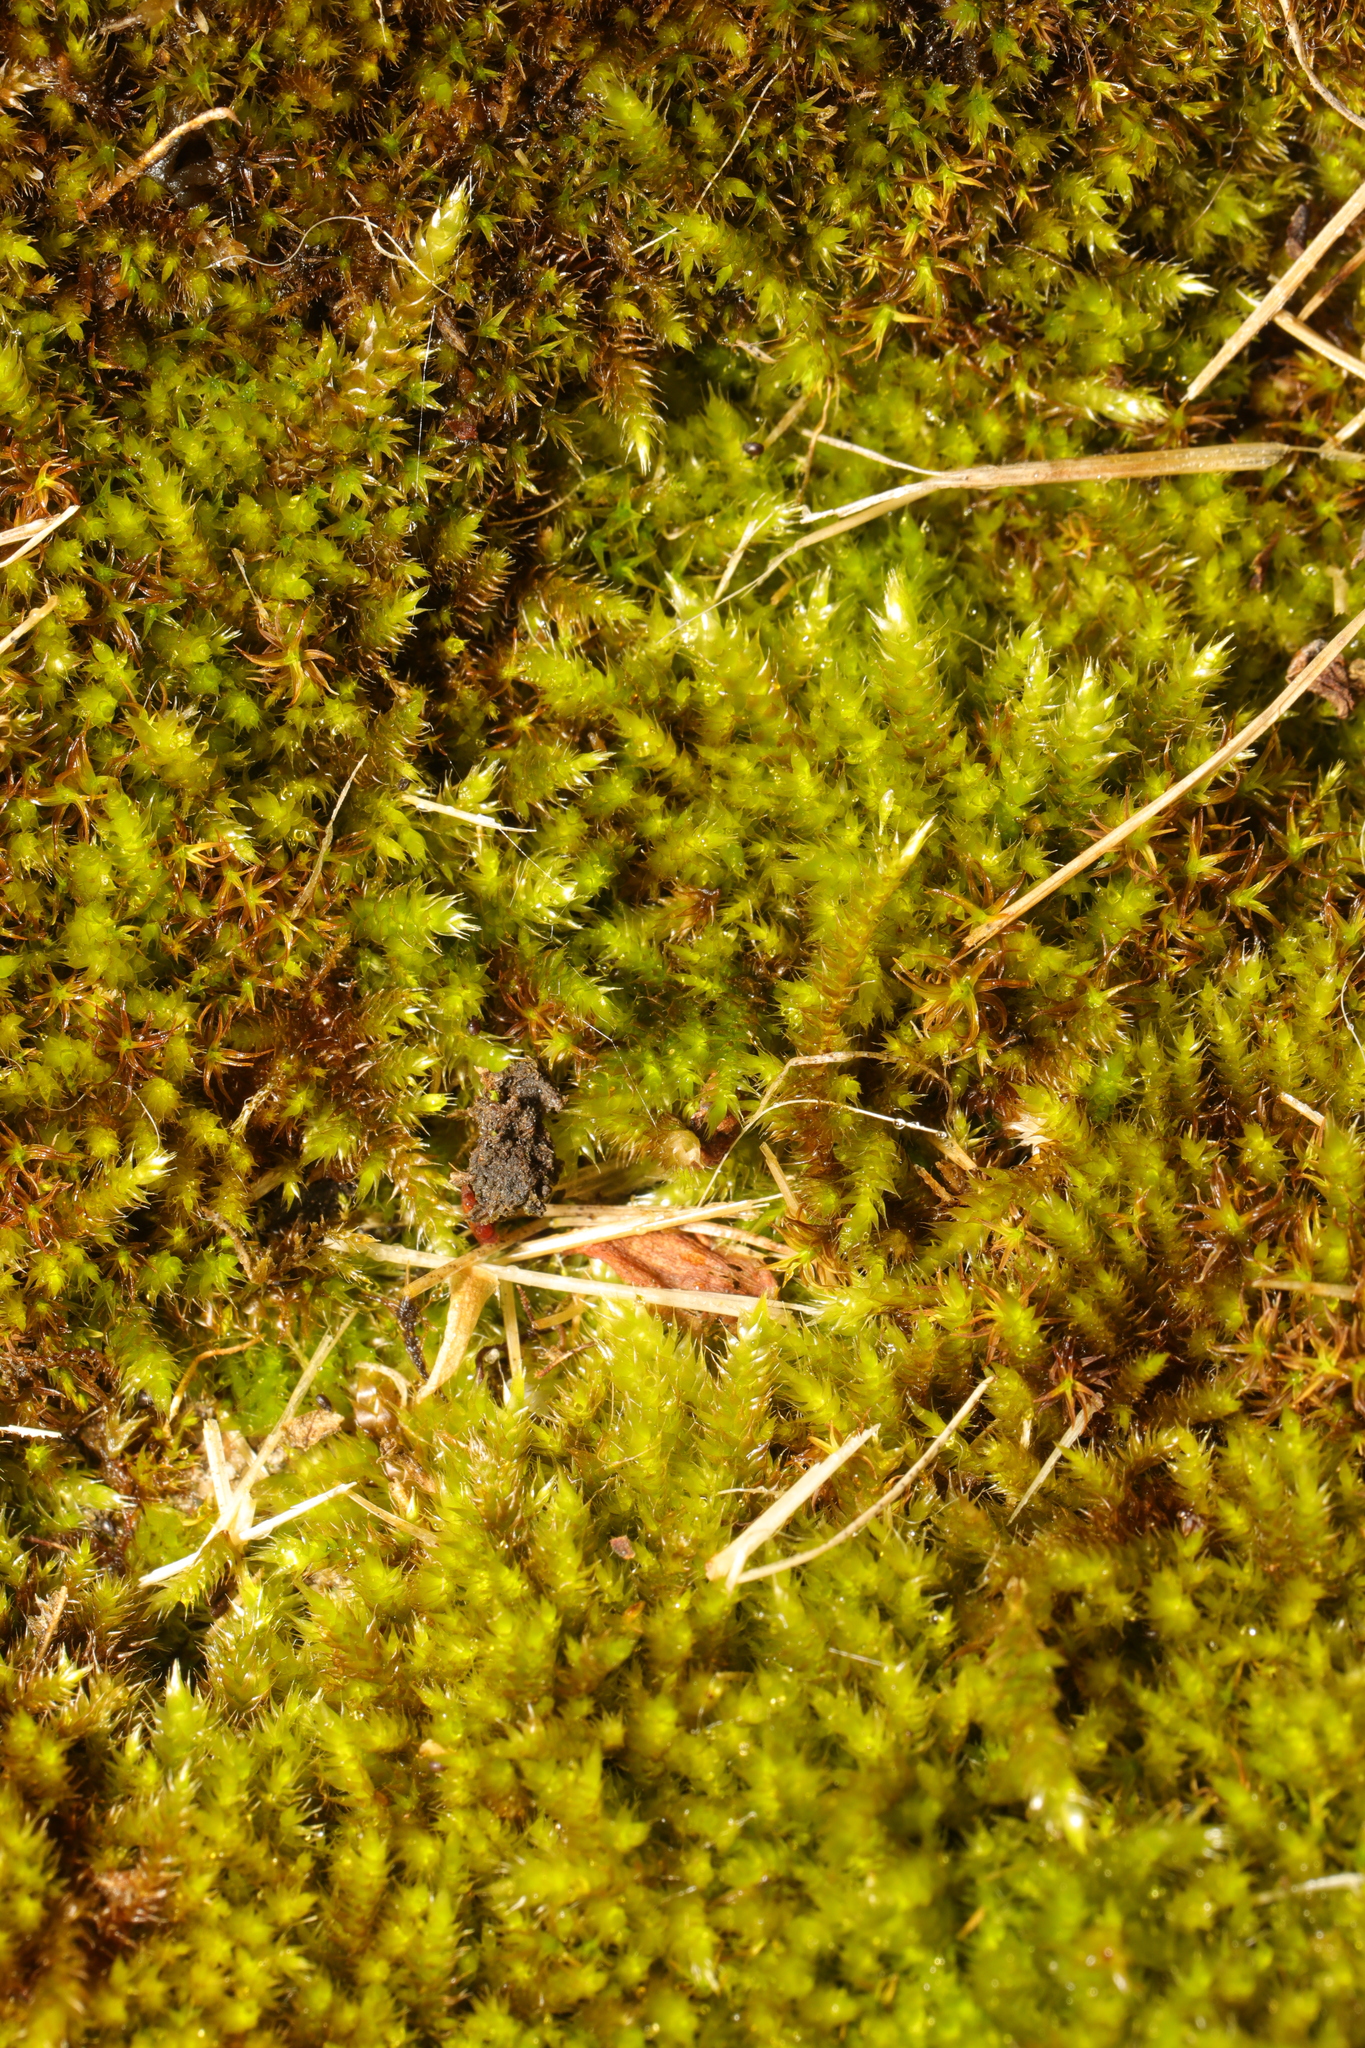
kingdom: Plantae
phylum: Bryophyta
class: Bryopsida
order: Hypnales
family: Hypnaceae
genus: Hypnum
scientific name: Hypnum cupressiforme
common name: Cypress-leaved plait-moss
